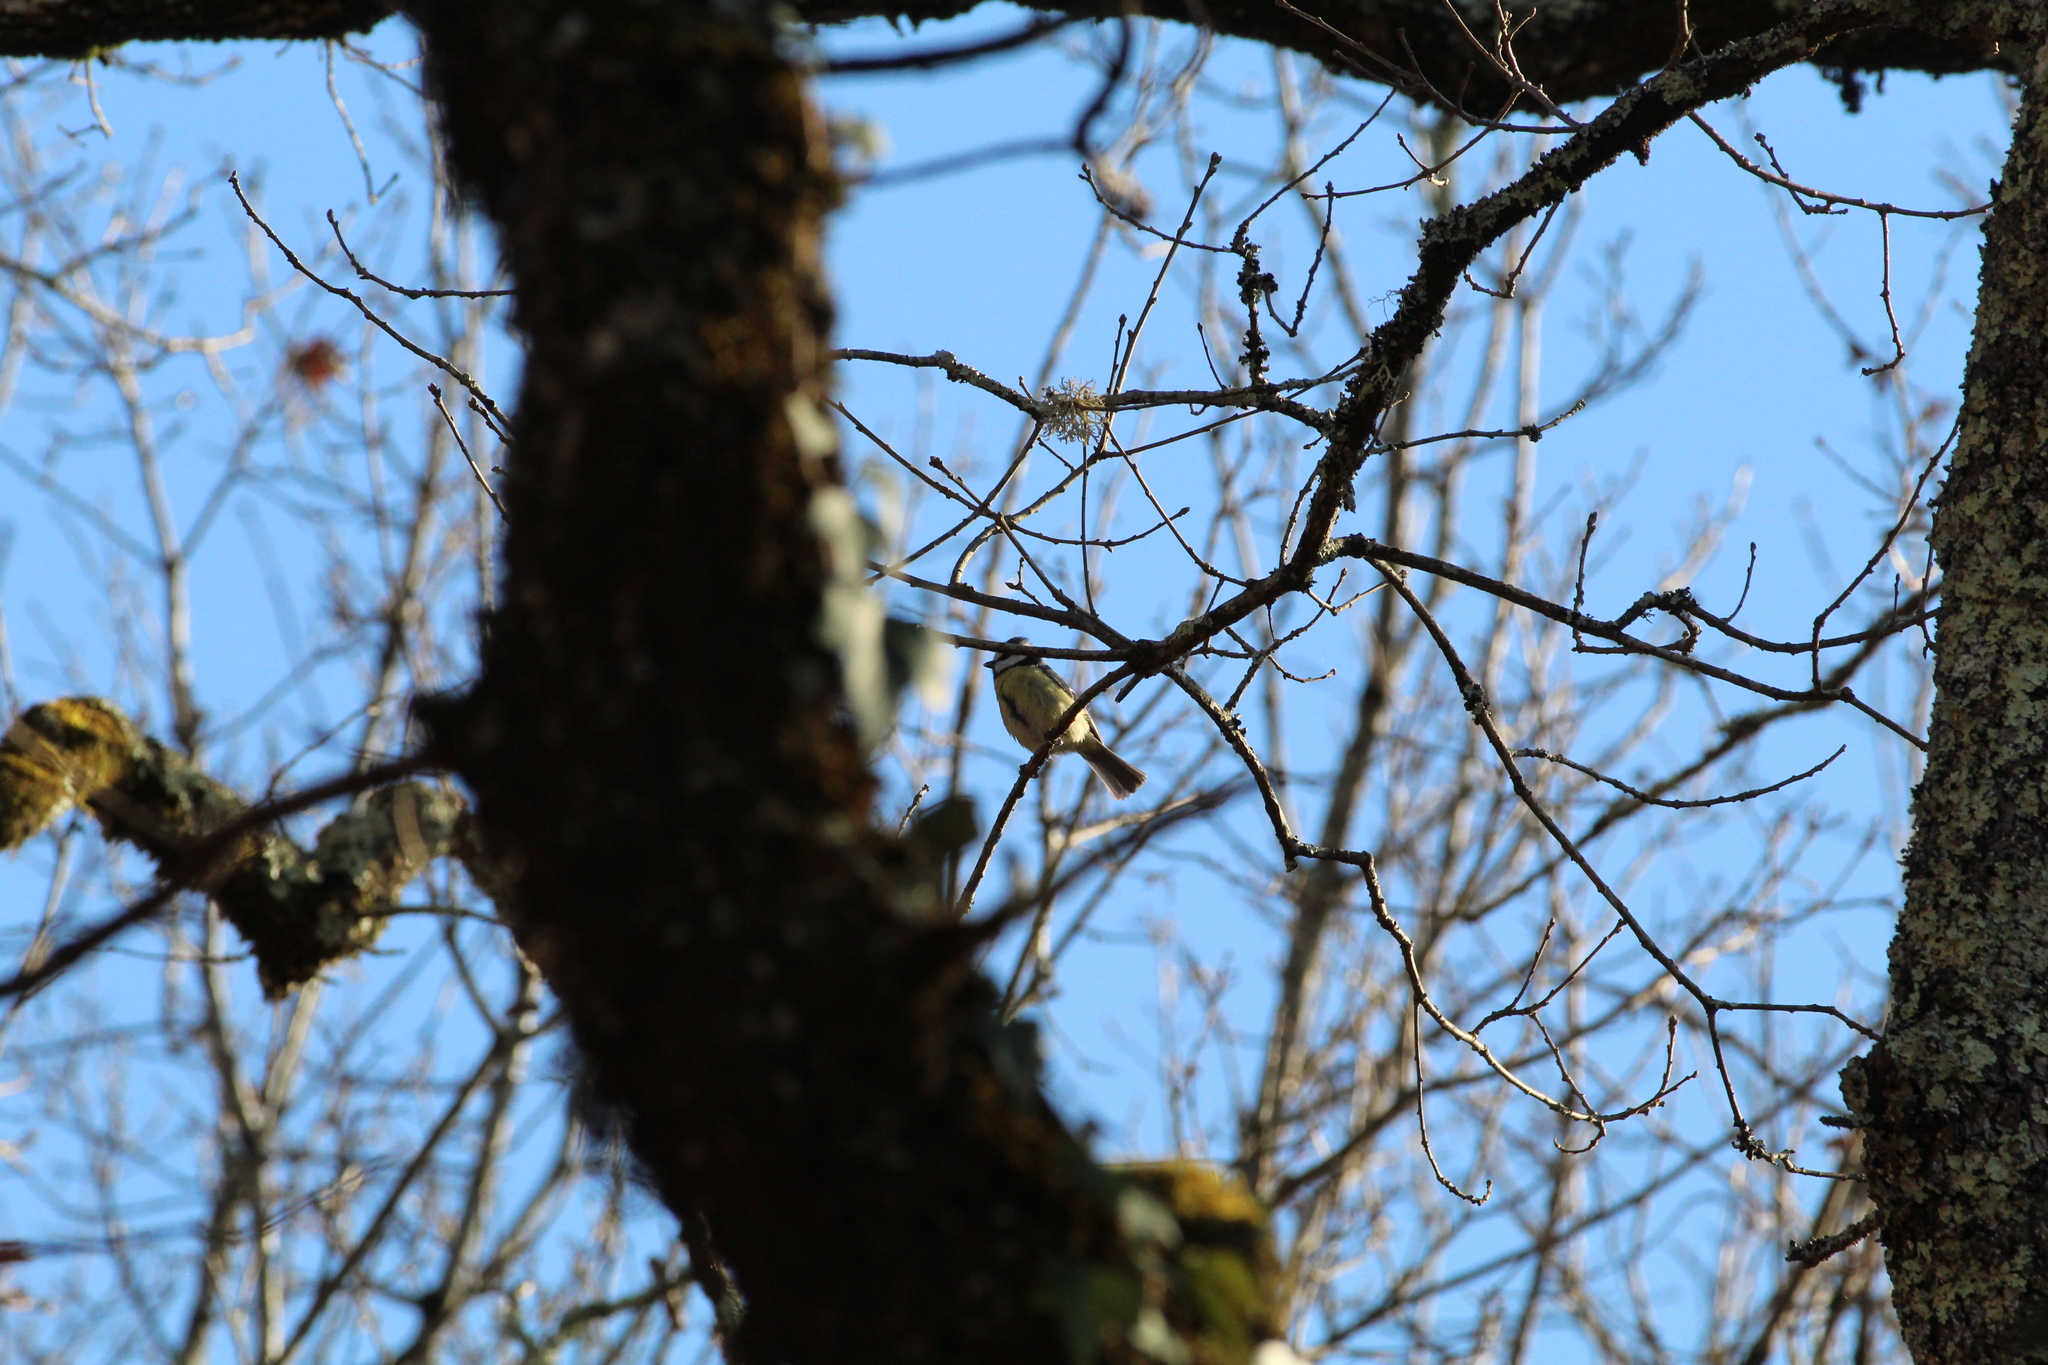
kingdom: Animalia
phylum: Chordata
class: Aves
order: Passeriformes
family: Paridae
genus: Cyanistes
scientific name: Cyanistes caeruleus
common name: Eurasian blue tit
